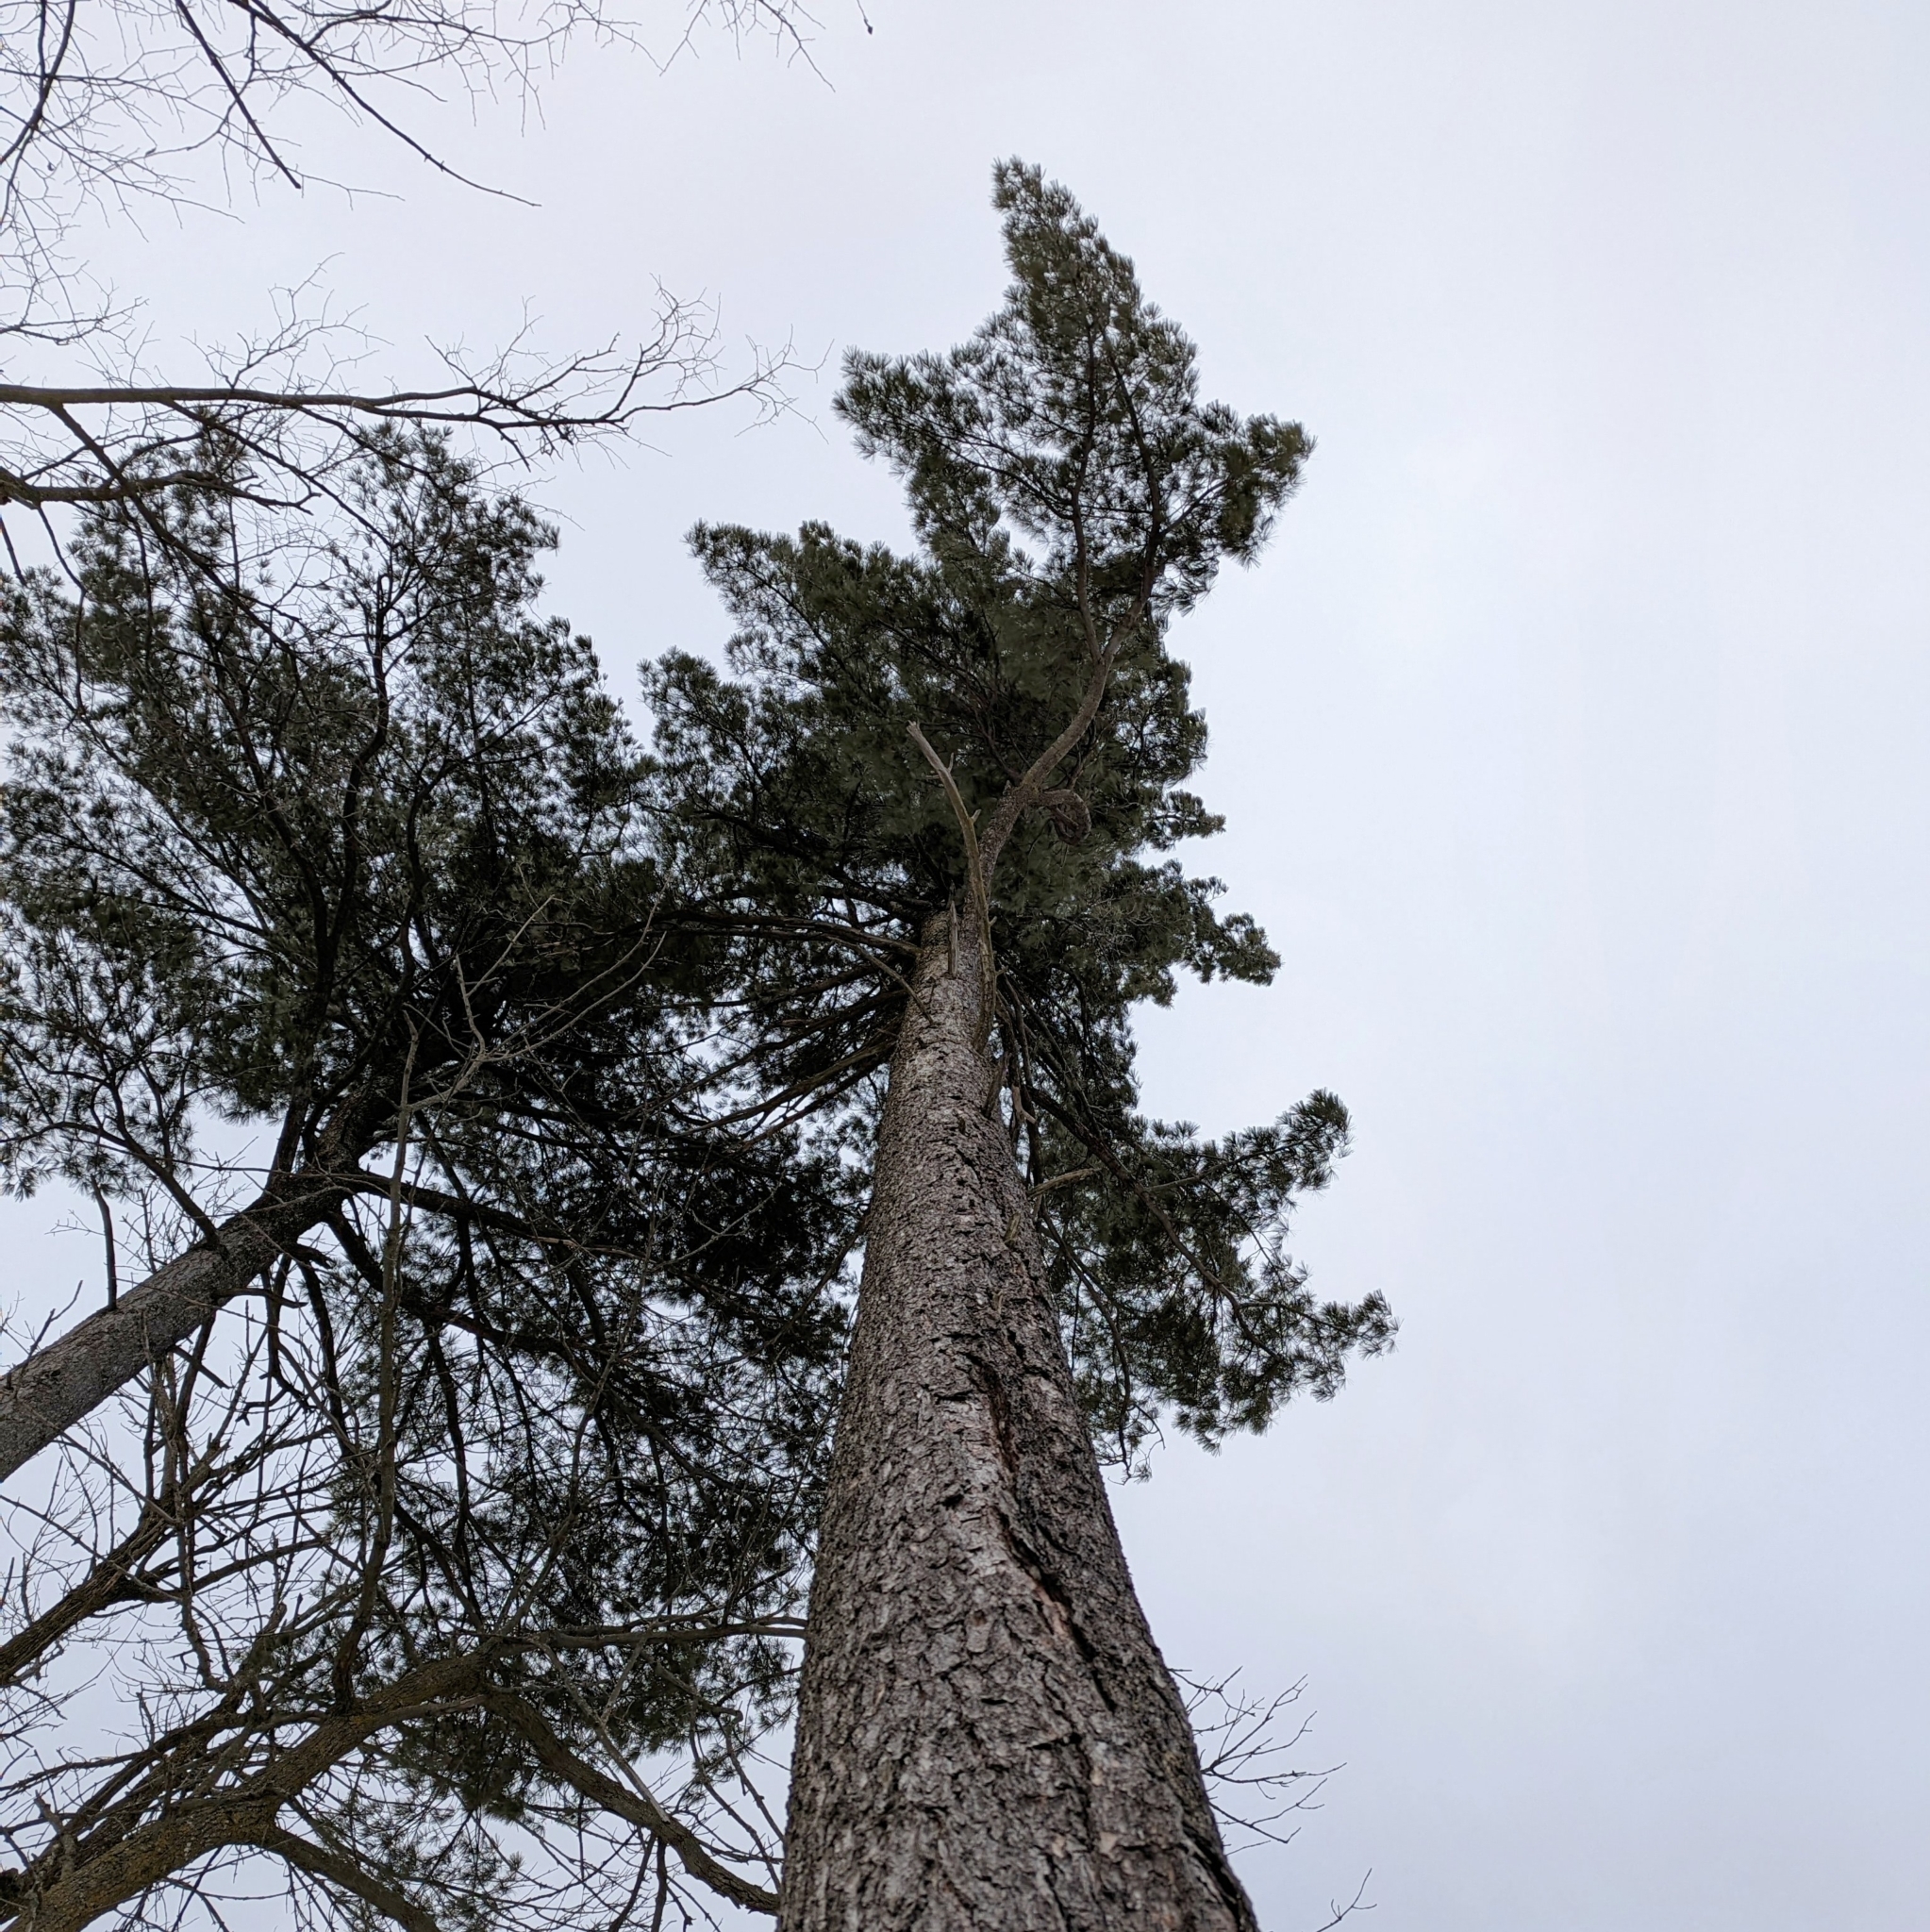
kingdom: Plantae
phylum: Tracheophyta
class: Pinopsida
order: Pinales
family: Pinaceae
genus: Pinus
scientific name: Pinus strobus
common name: Weymouth pine
